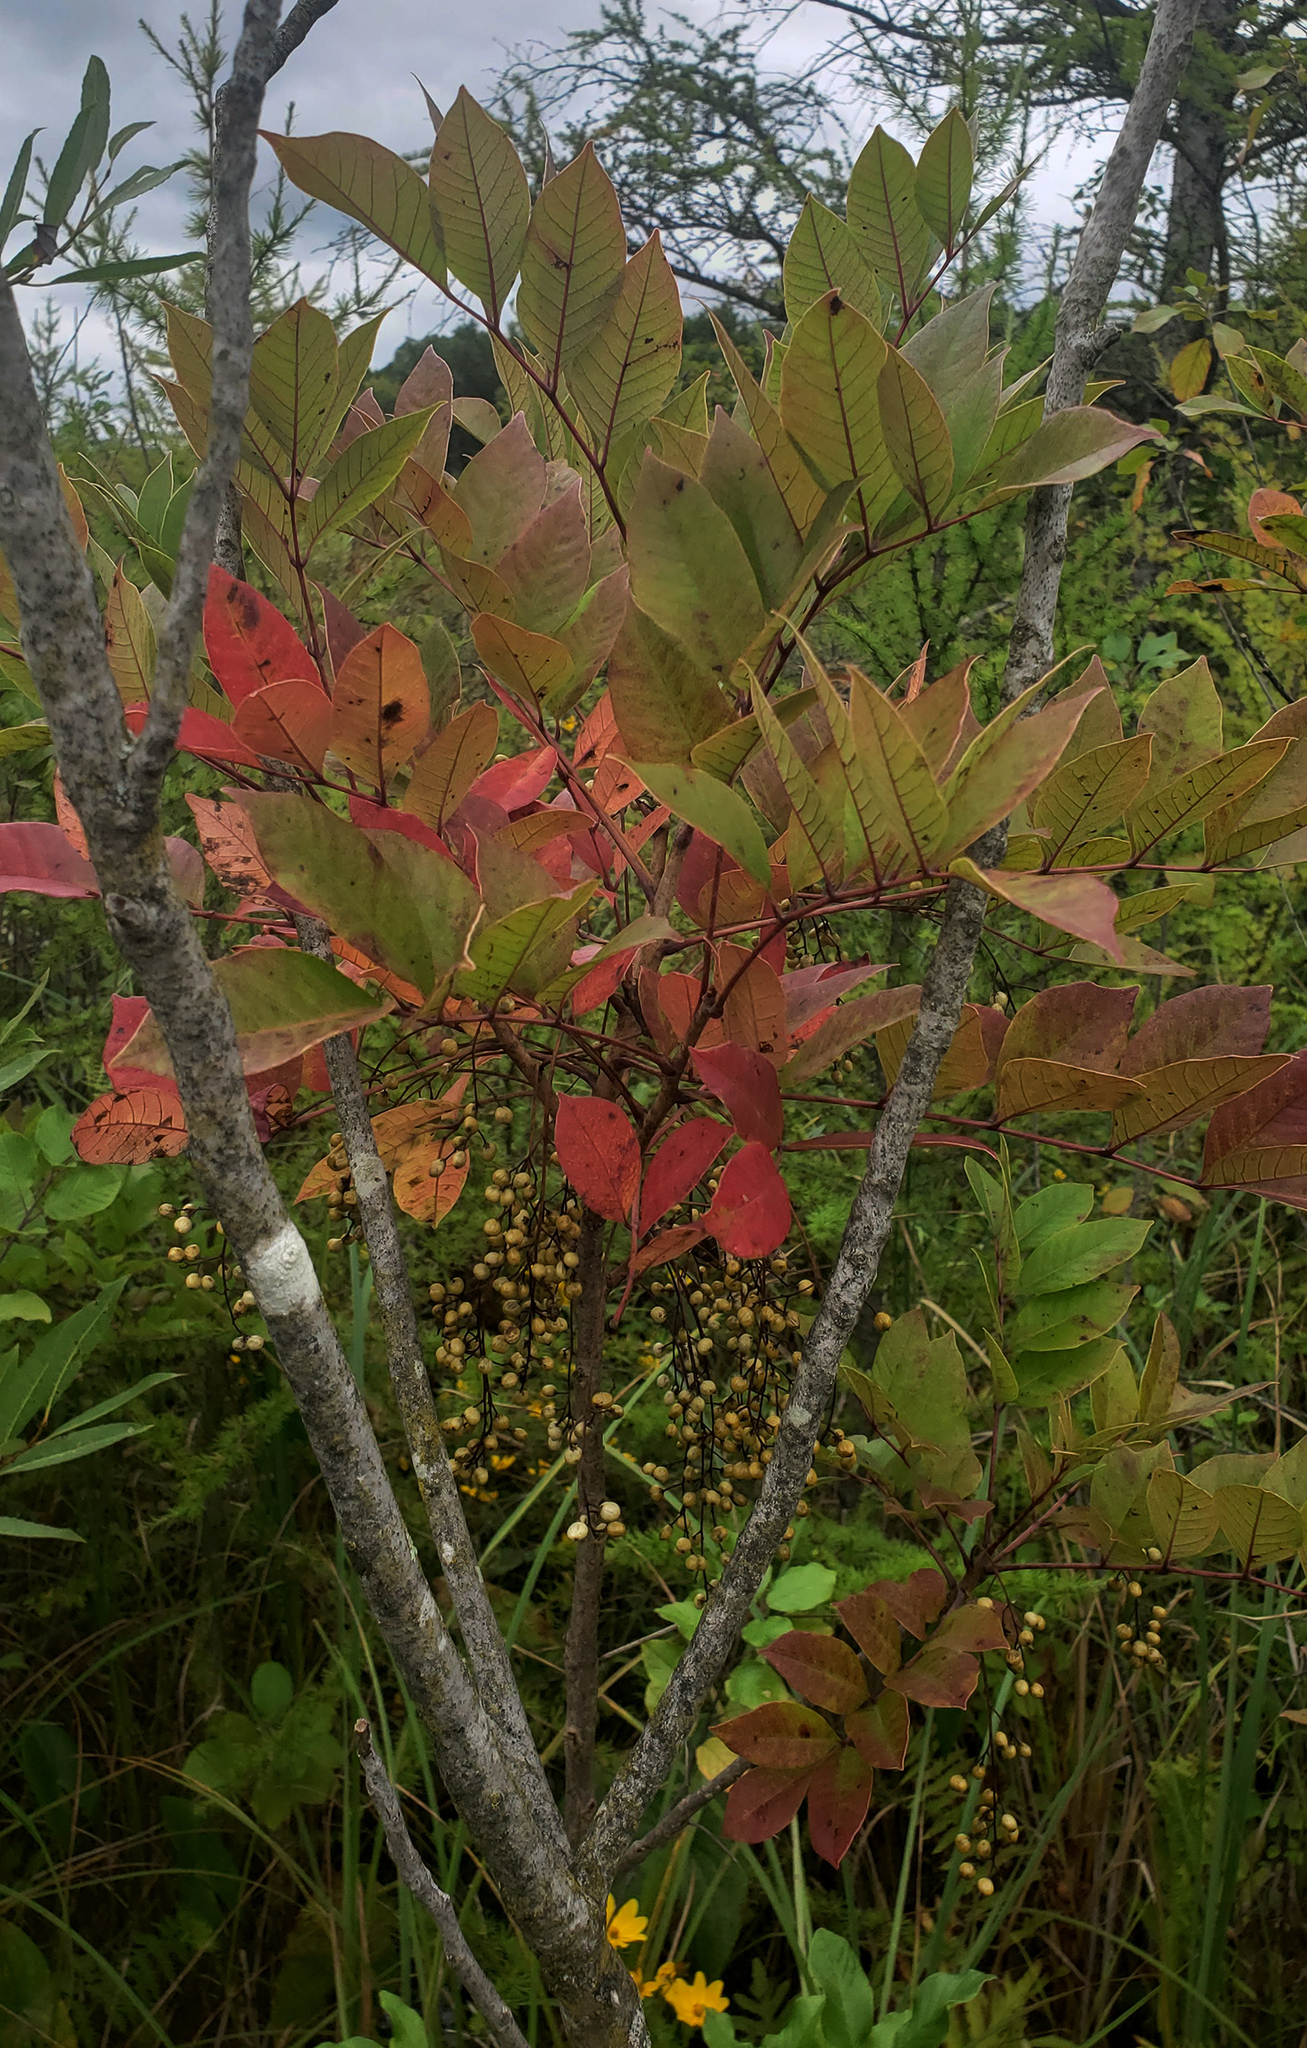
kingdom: Plantae
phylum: Tracheophyta
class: Magnoliopsida
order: Sapindales
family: Anacardiaceae
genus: Toxicodendron
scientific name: Toxicodendron vernix
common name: Poison sumac
